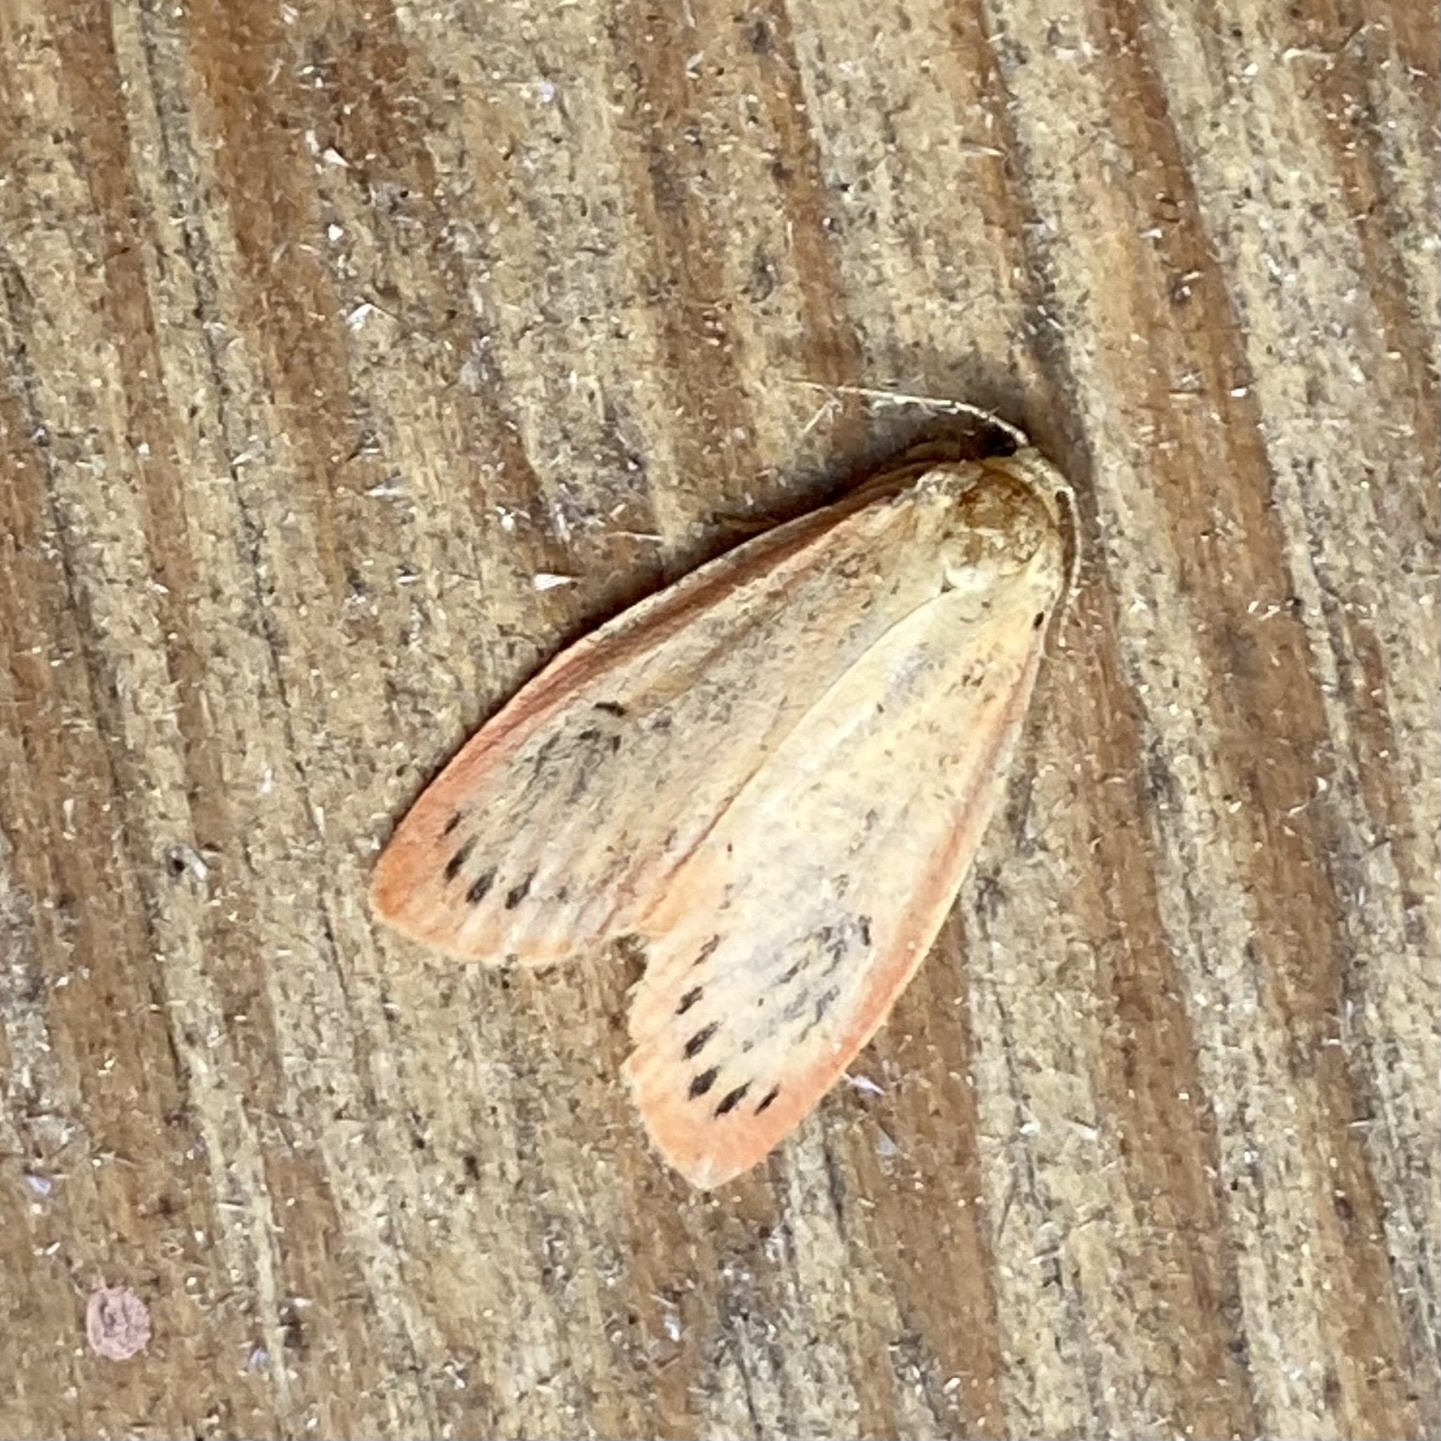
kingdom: Animalia
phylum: Arthropoda
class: Insecta
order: Lepidoptera
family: Erebidae
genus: Miltochrista
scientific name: Miltochrista miniata
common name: Rosy footman
